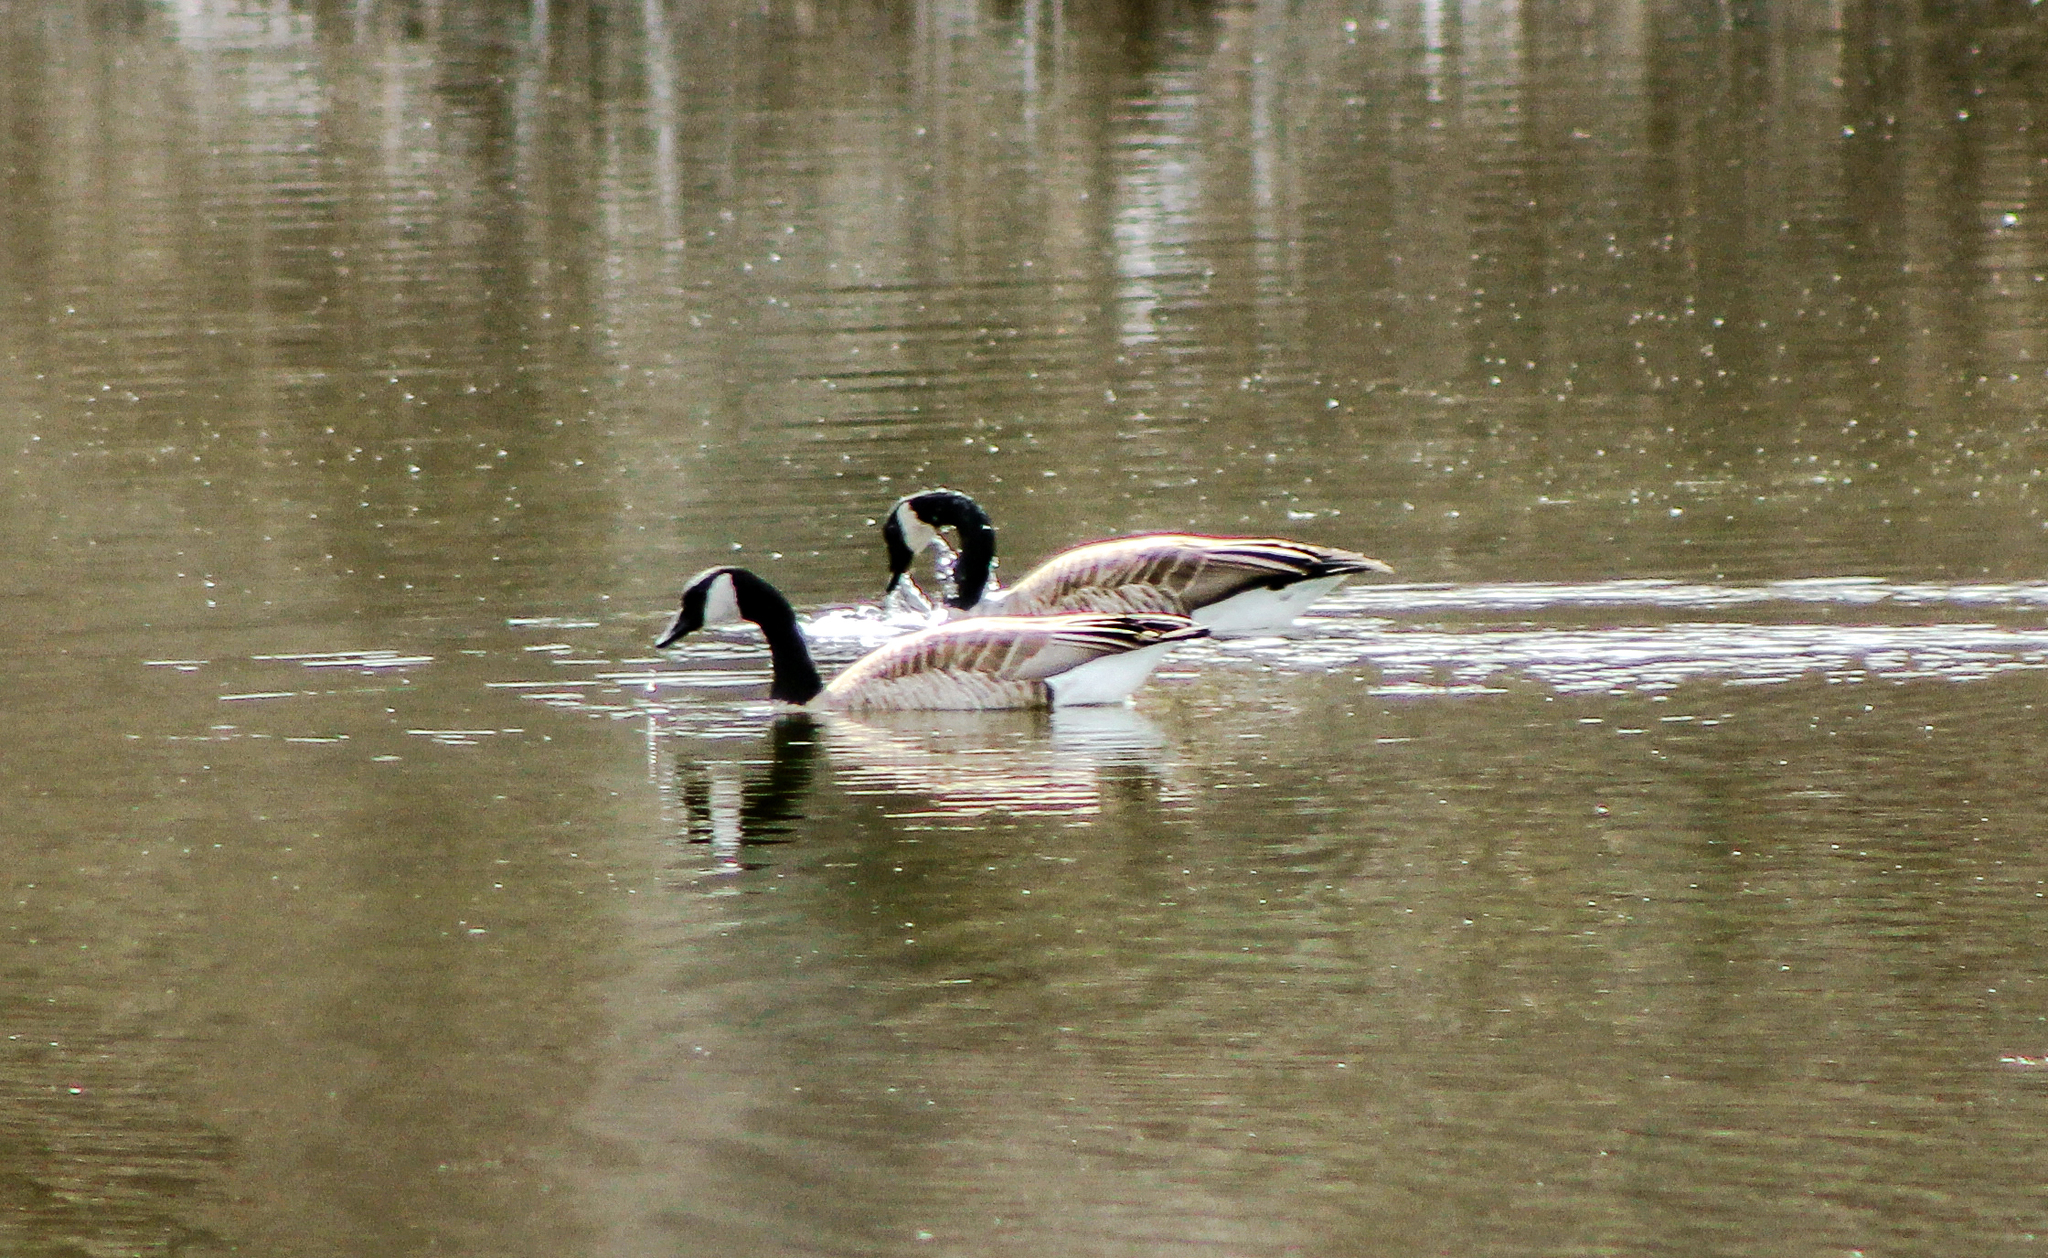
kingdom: Animalia
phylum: Chordata
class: Aves
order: Anseriformes
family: Anatidae
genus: Branta
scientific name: Branta canadensis
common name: Canada goose
